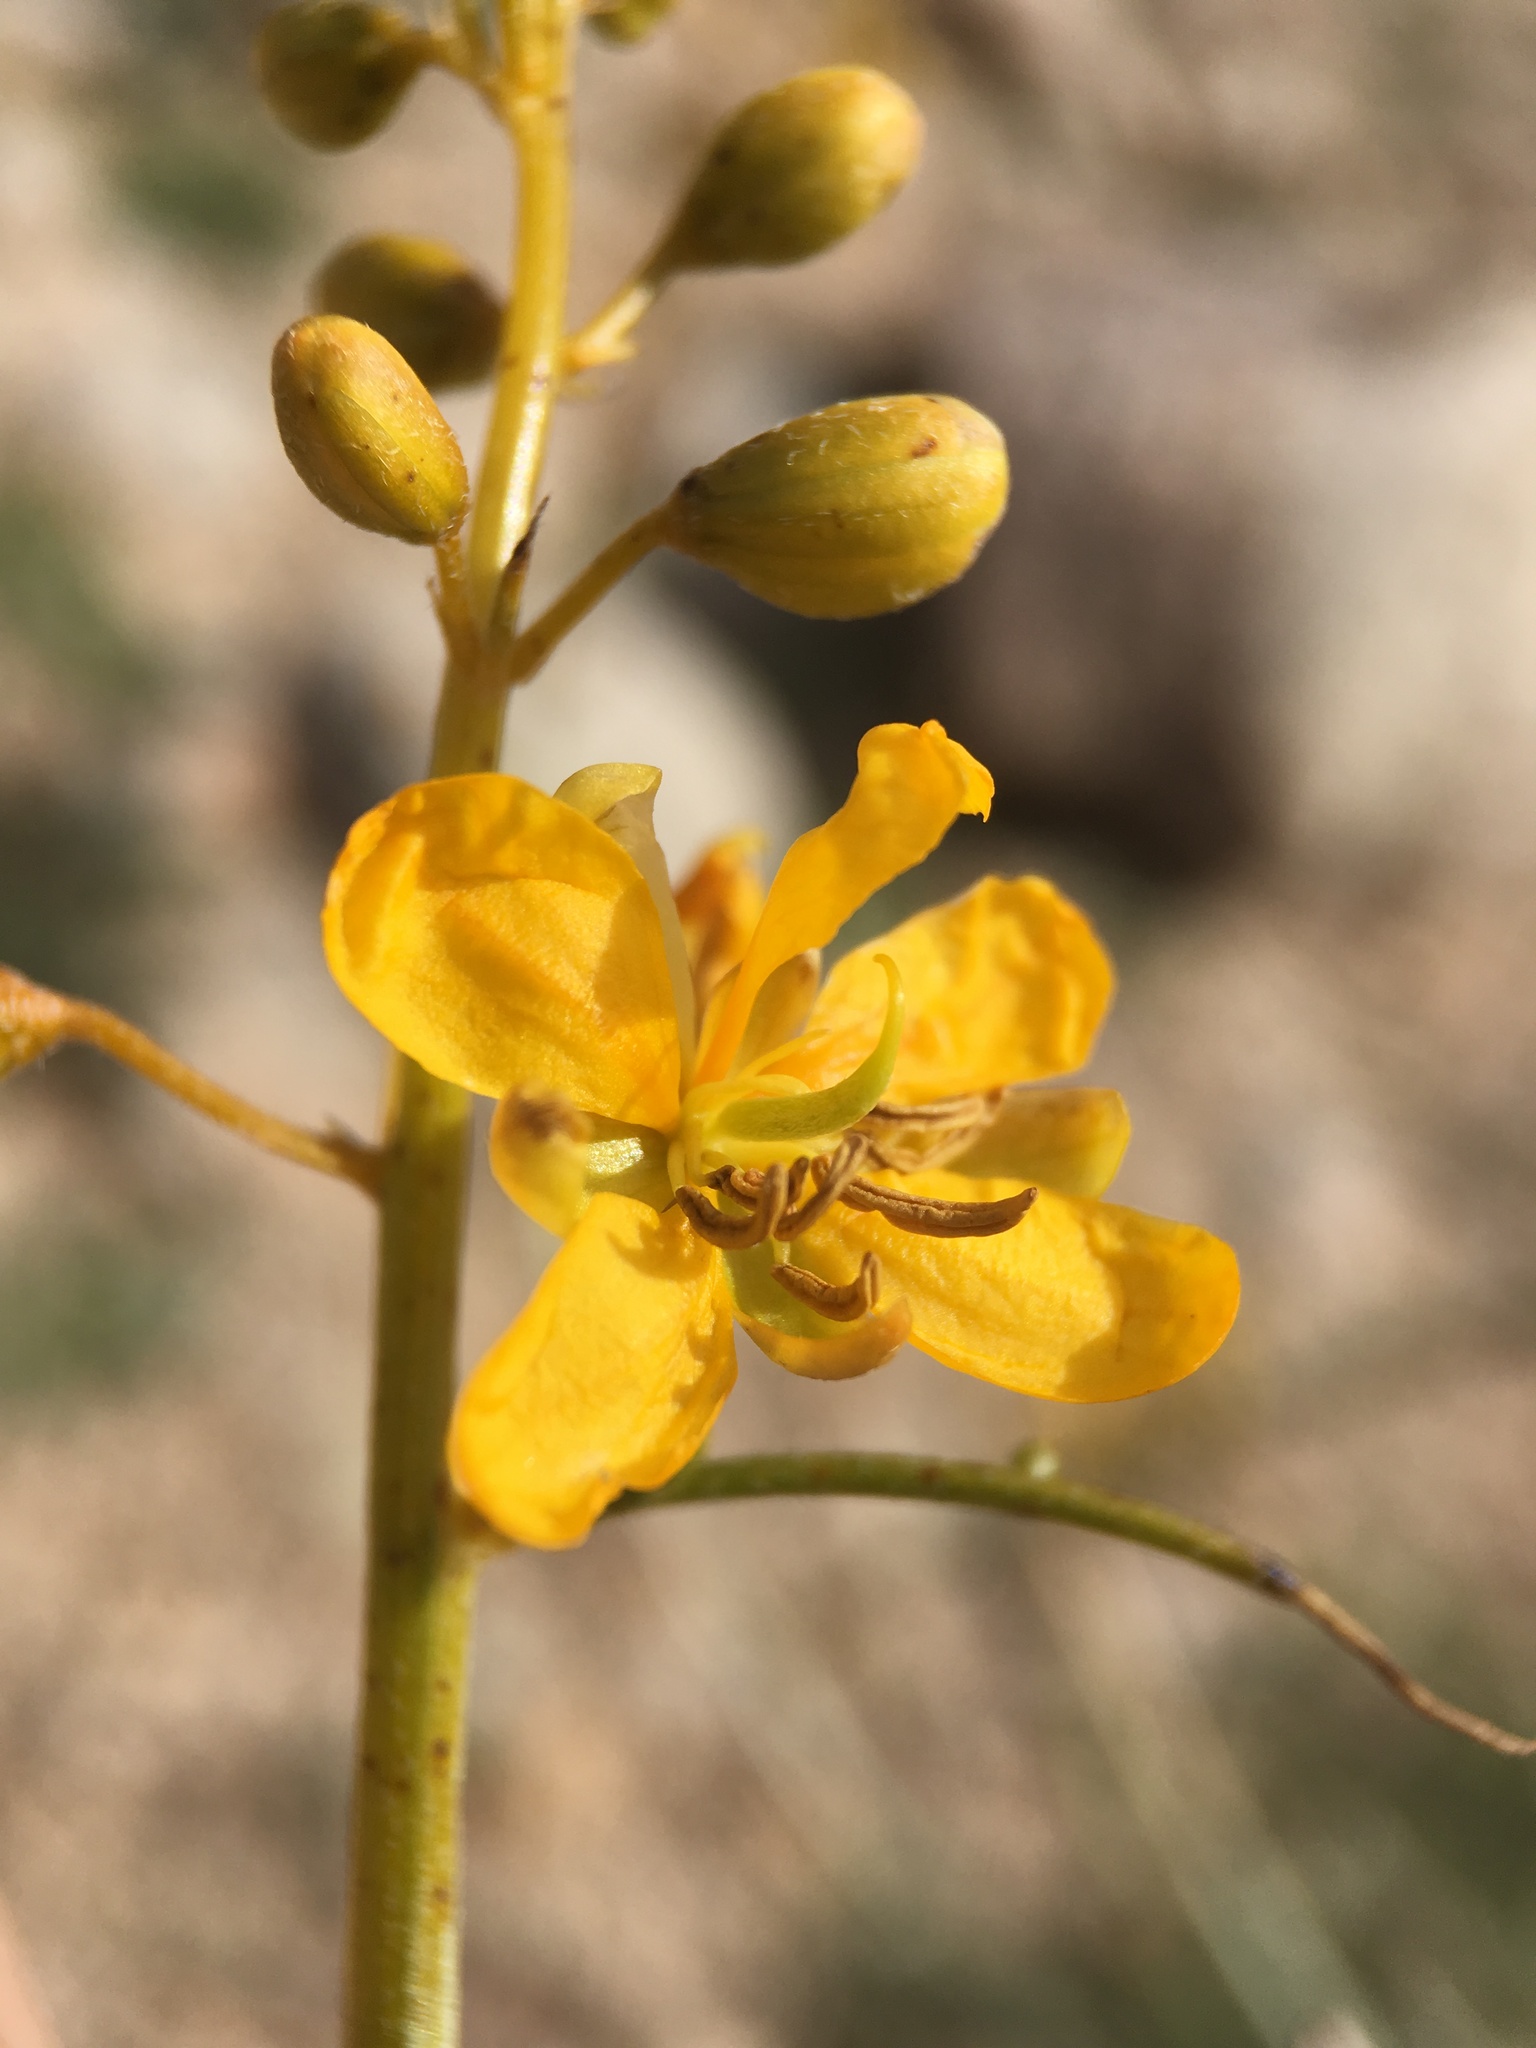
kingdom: Plantae
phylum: Tracheophyta
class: Magnoliopsida
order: Fabales
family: Fabaceae
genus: Senna
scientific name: Senna armata
